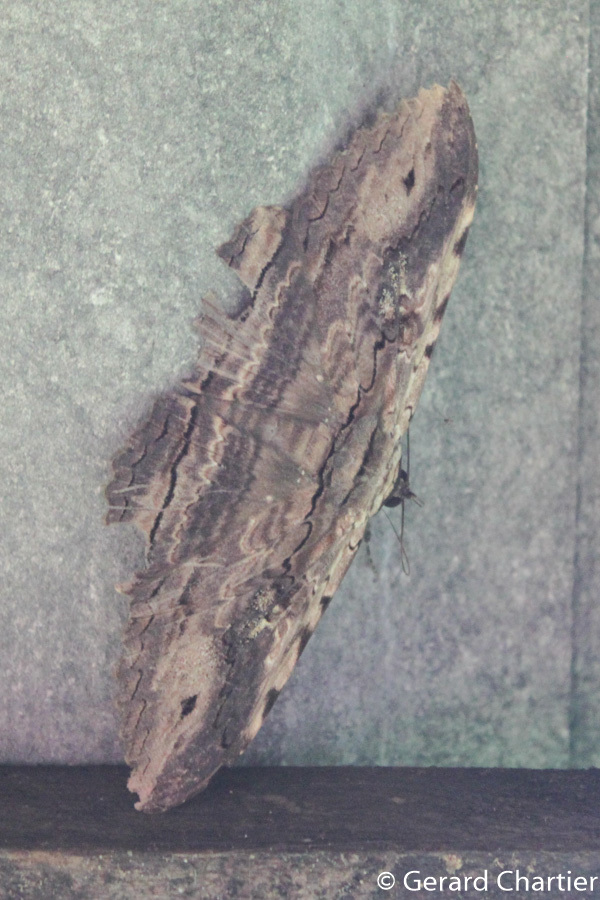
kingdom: Animalia
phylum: Arthropoda
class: Insecta
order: Lepidoptera
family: Erebidae
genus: Anisoneura
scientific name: Anisoneura aluco
